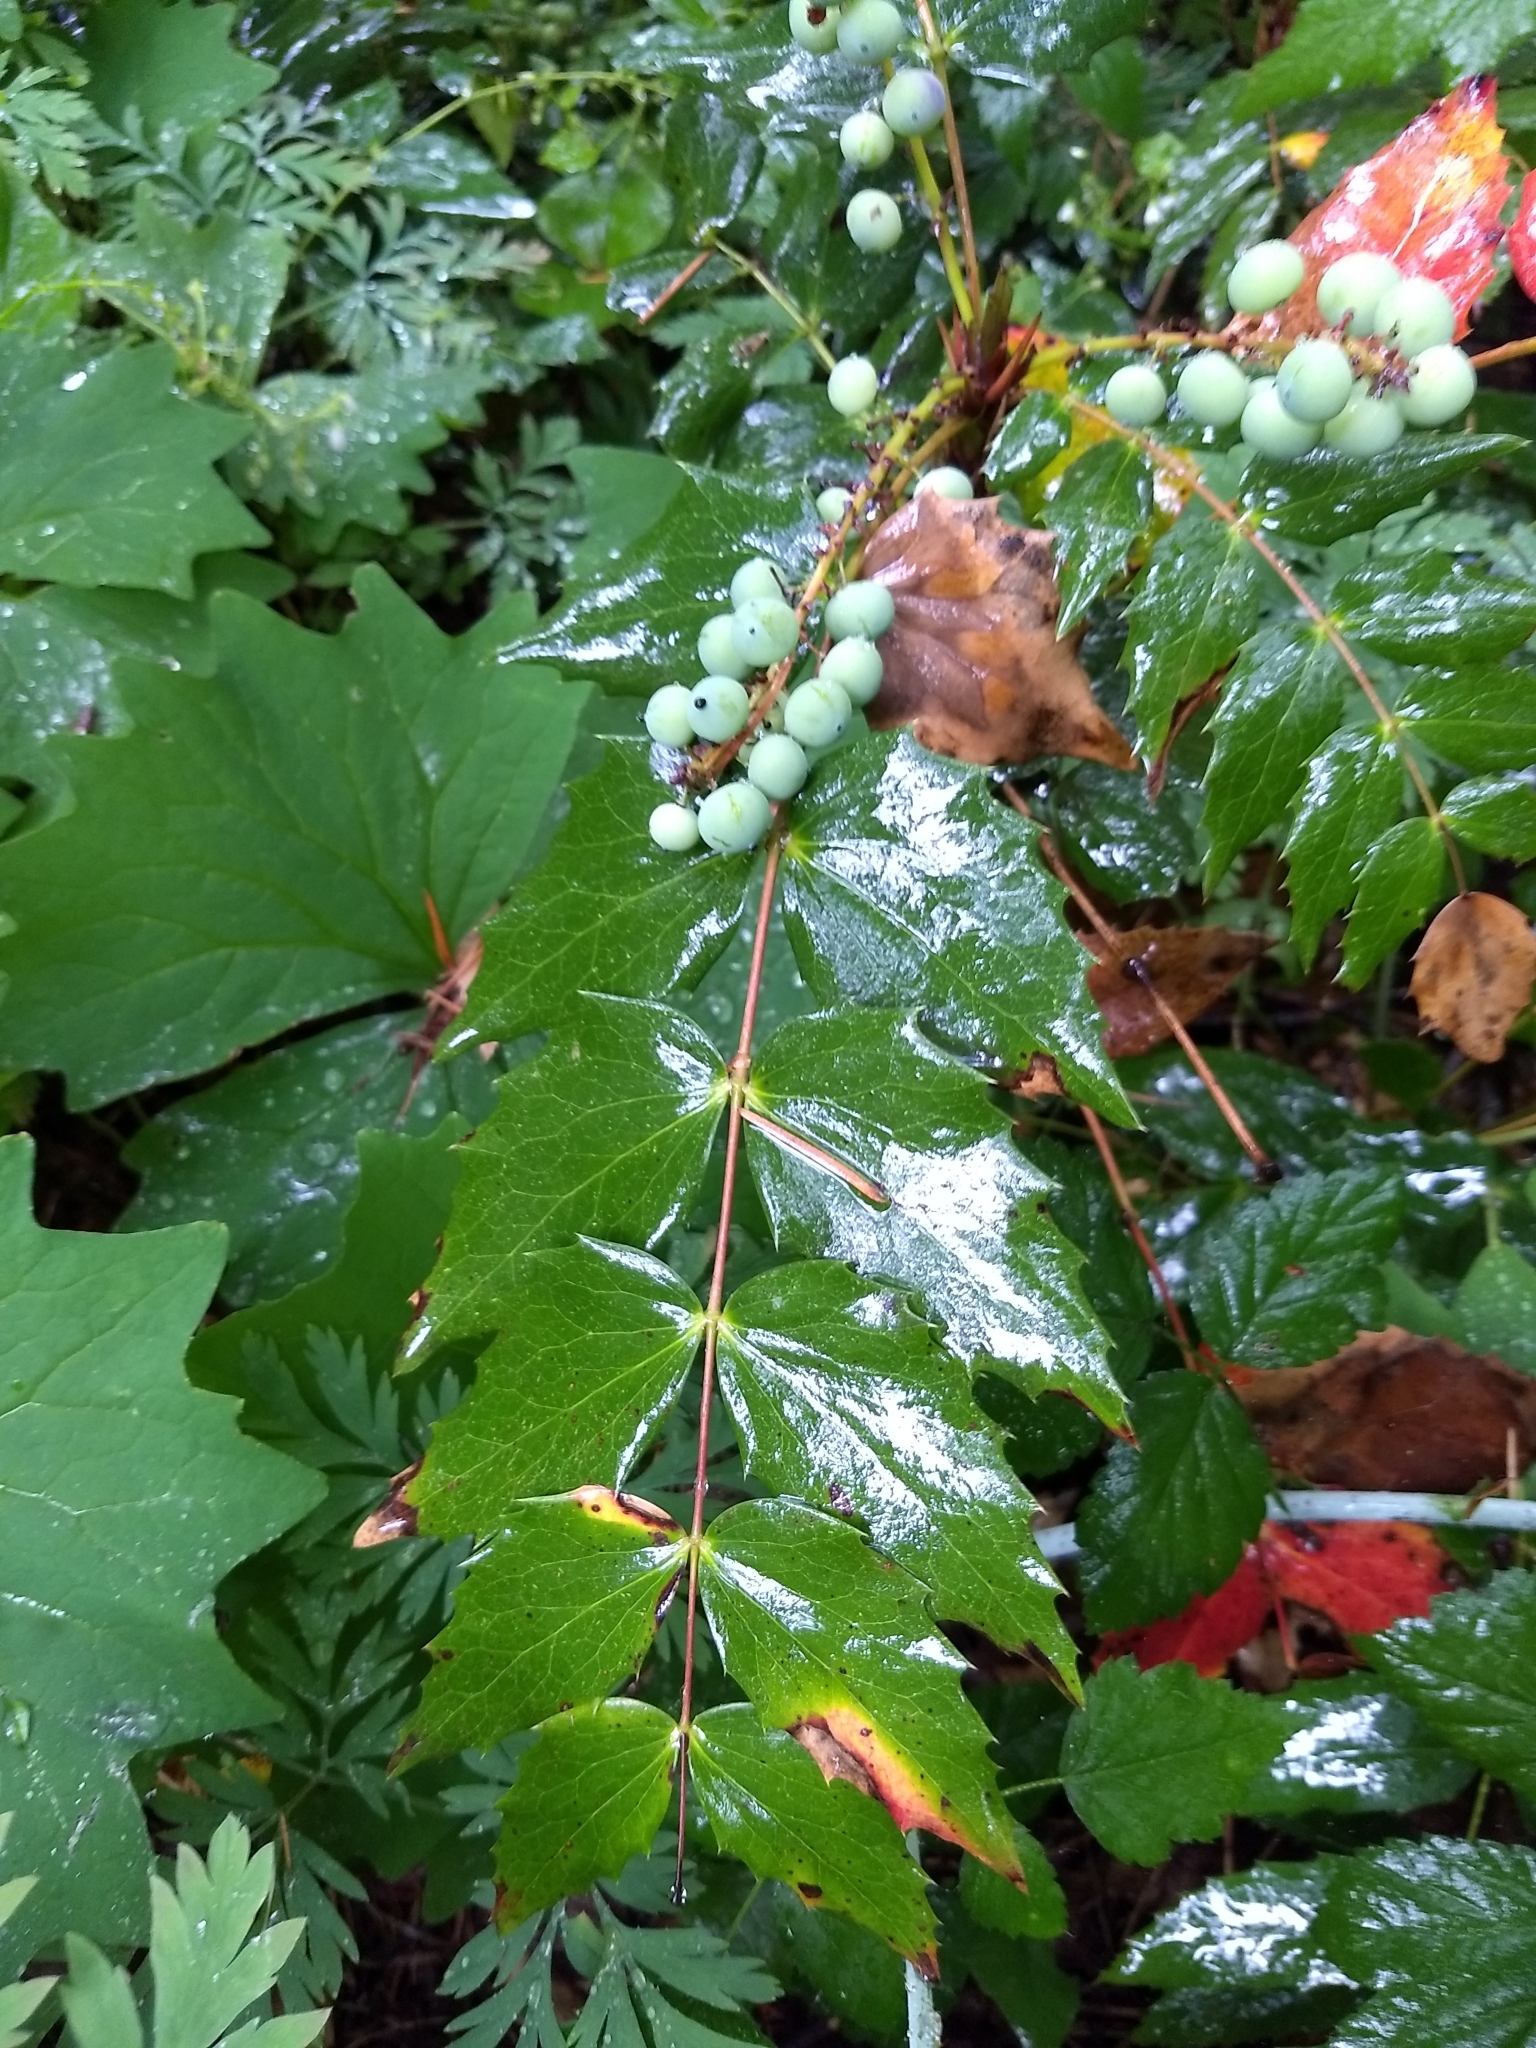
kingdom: Plantae
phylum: Tracheophyta
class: Magnoliopsida
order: Ranunculales
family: Berberidaceae
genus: Mahonia
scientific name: Mahonia nervosa
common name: Cascade oregon-grape
